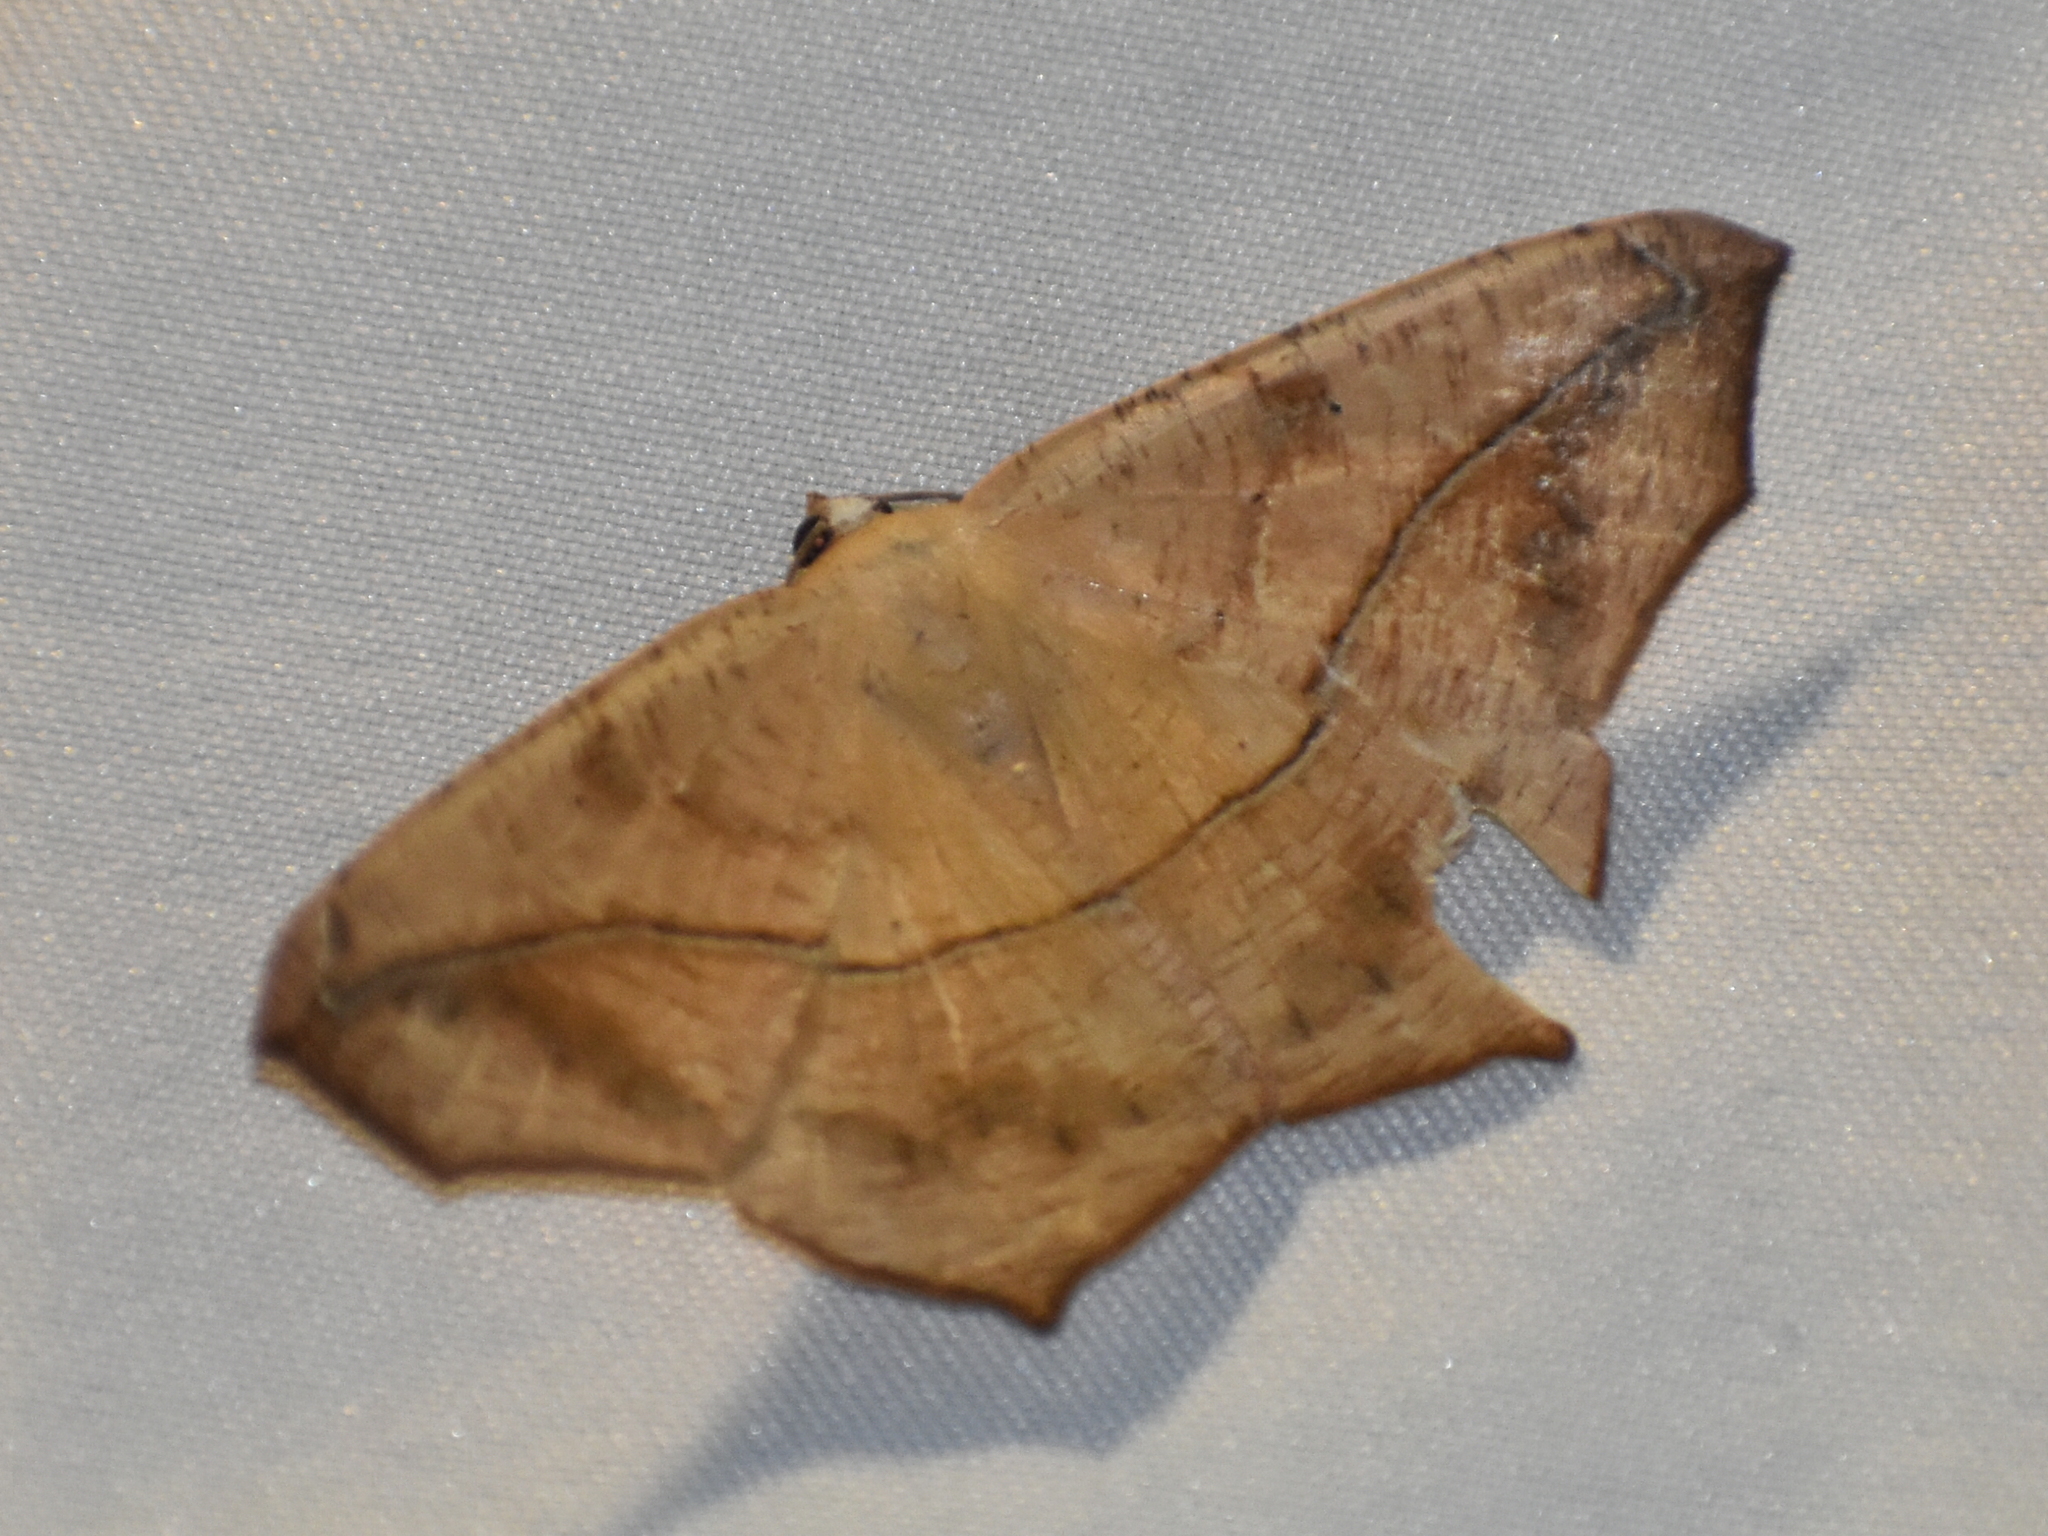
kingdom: Animalia
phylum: Arthropoda
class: Insecta
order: Lepidoptera
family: Geometridae
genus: Prochoerodes
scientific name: Prochoerodes lineola
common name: Large maple spanworm
